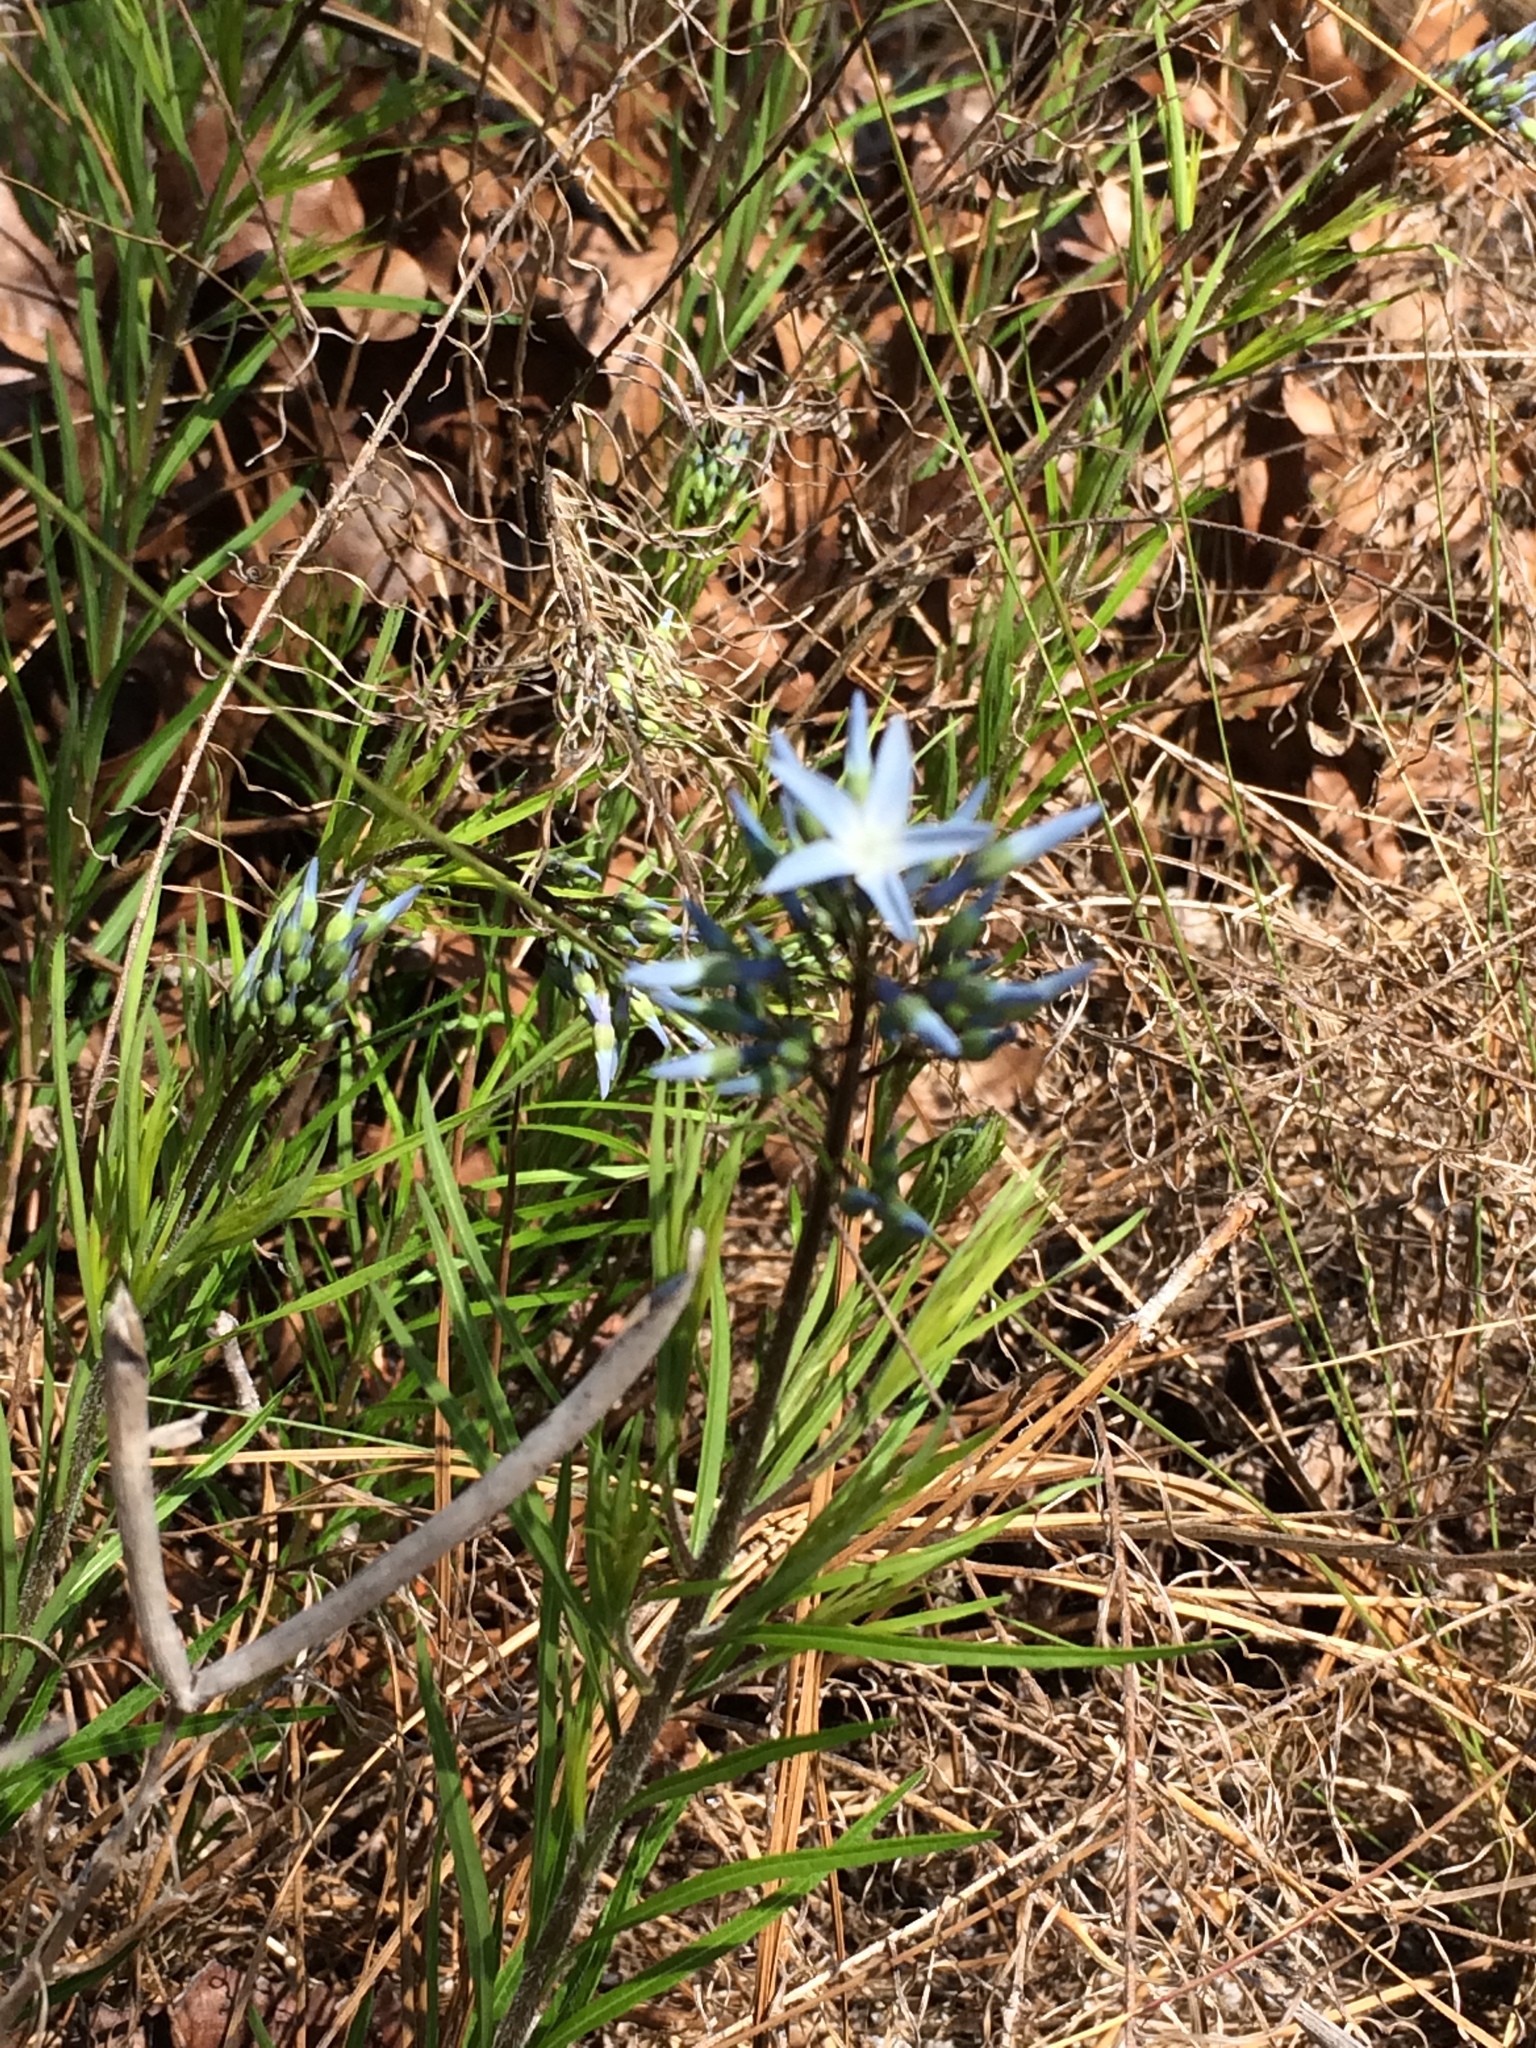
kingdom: Plantae
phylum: Tracheophyta
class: Magnoliopsida
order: Gentianales
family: Apocynaceae
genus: Amsonia
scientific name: Amsonia ciliata
